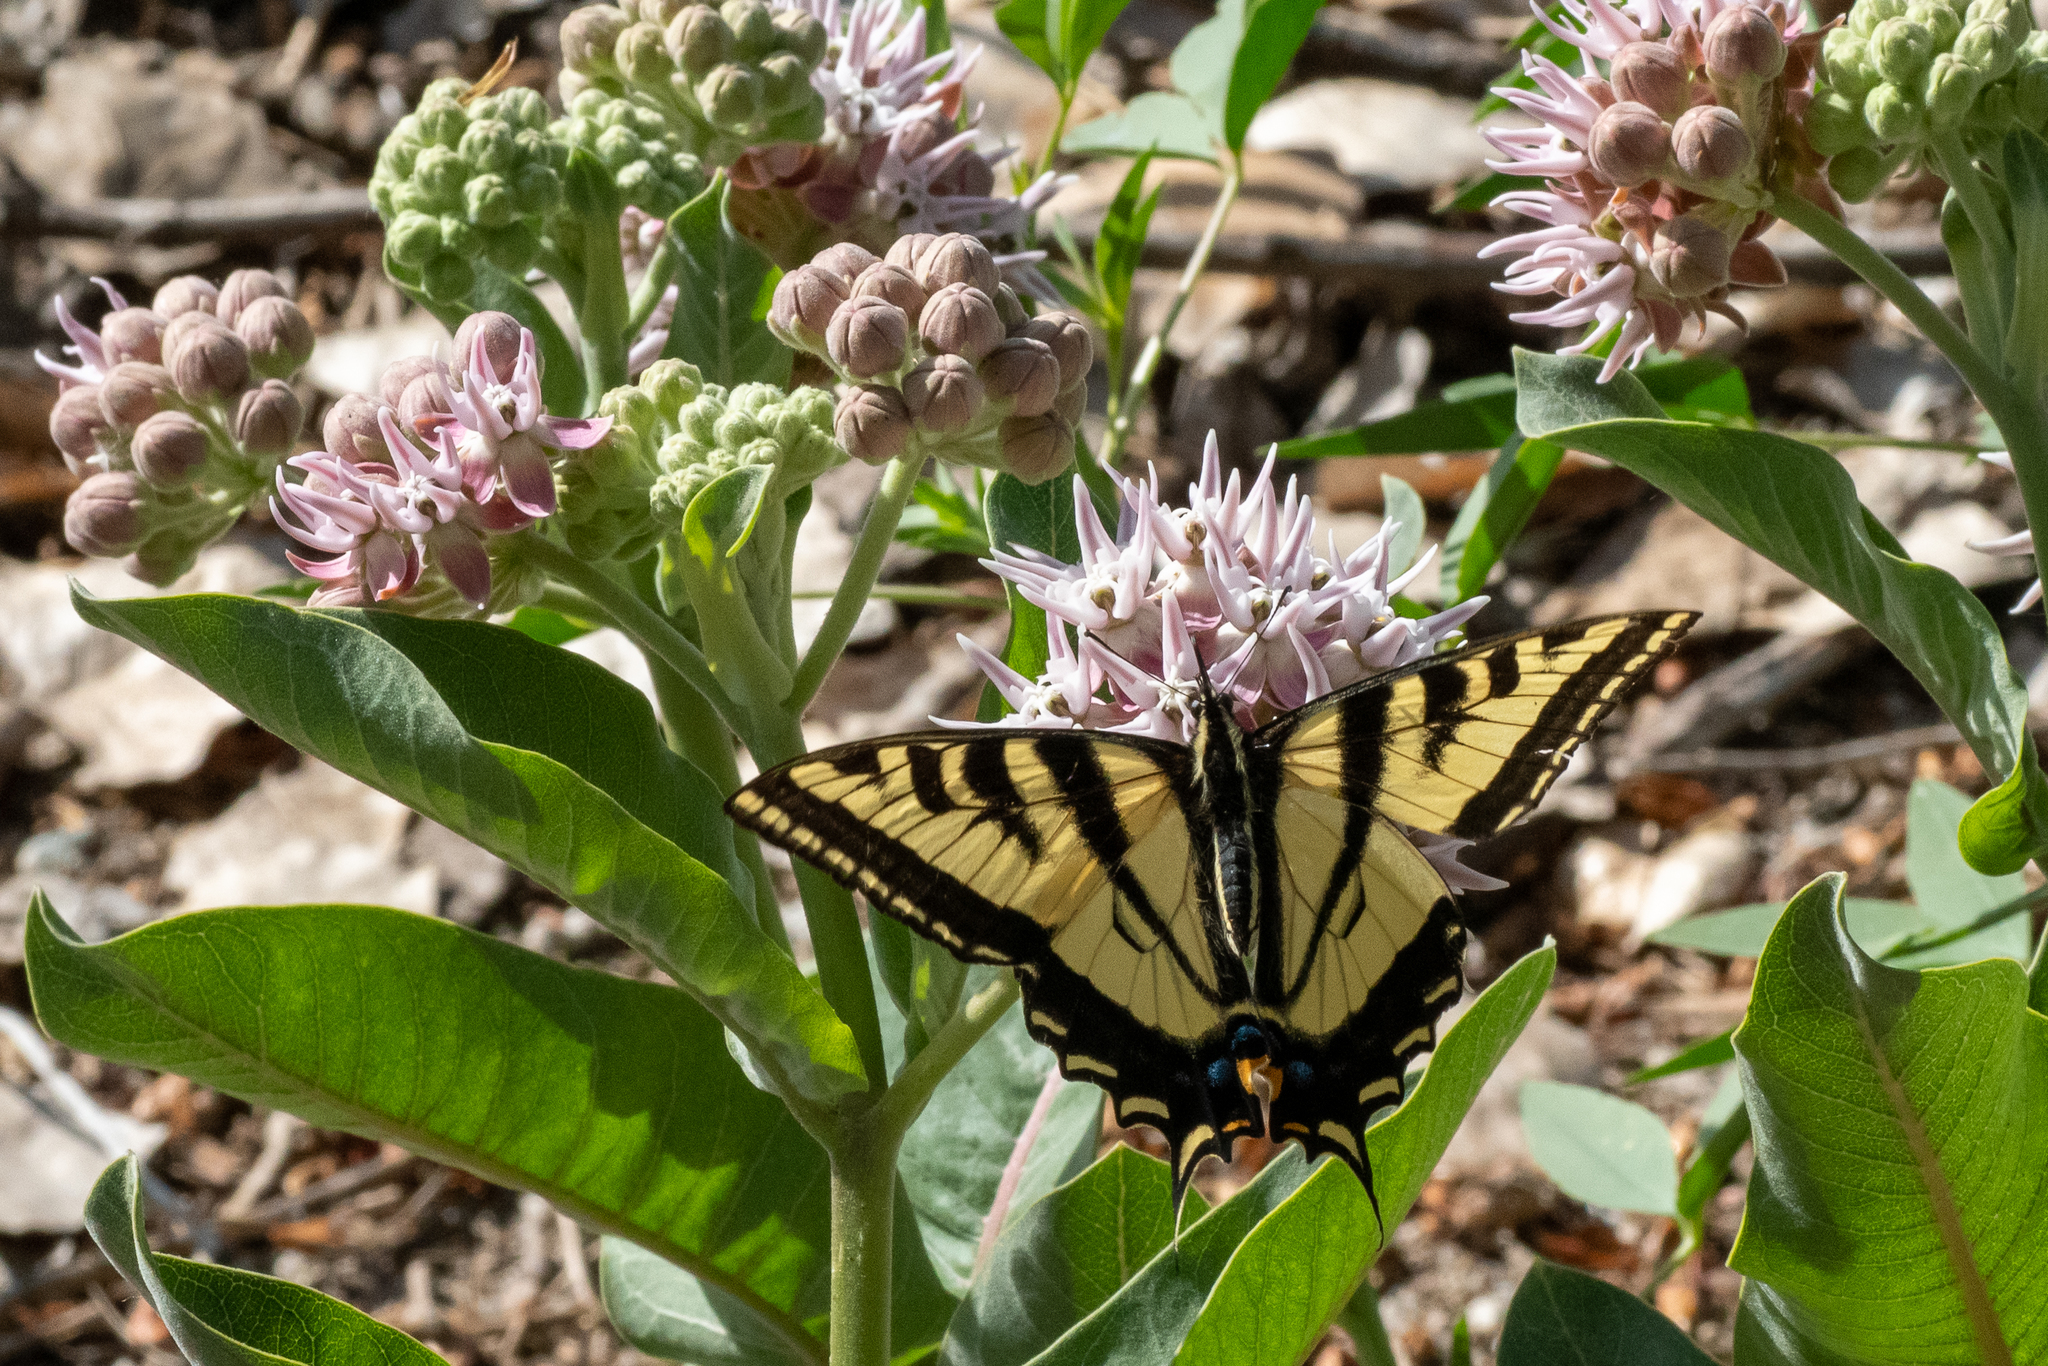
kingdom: Animalia
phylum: Arthropoda
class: Insecta
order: Lepidoptera
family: Papilionidae
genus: Papilio
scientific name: Papilio rutulus
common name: Western tiger swallowtail
